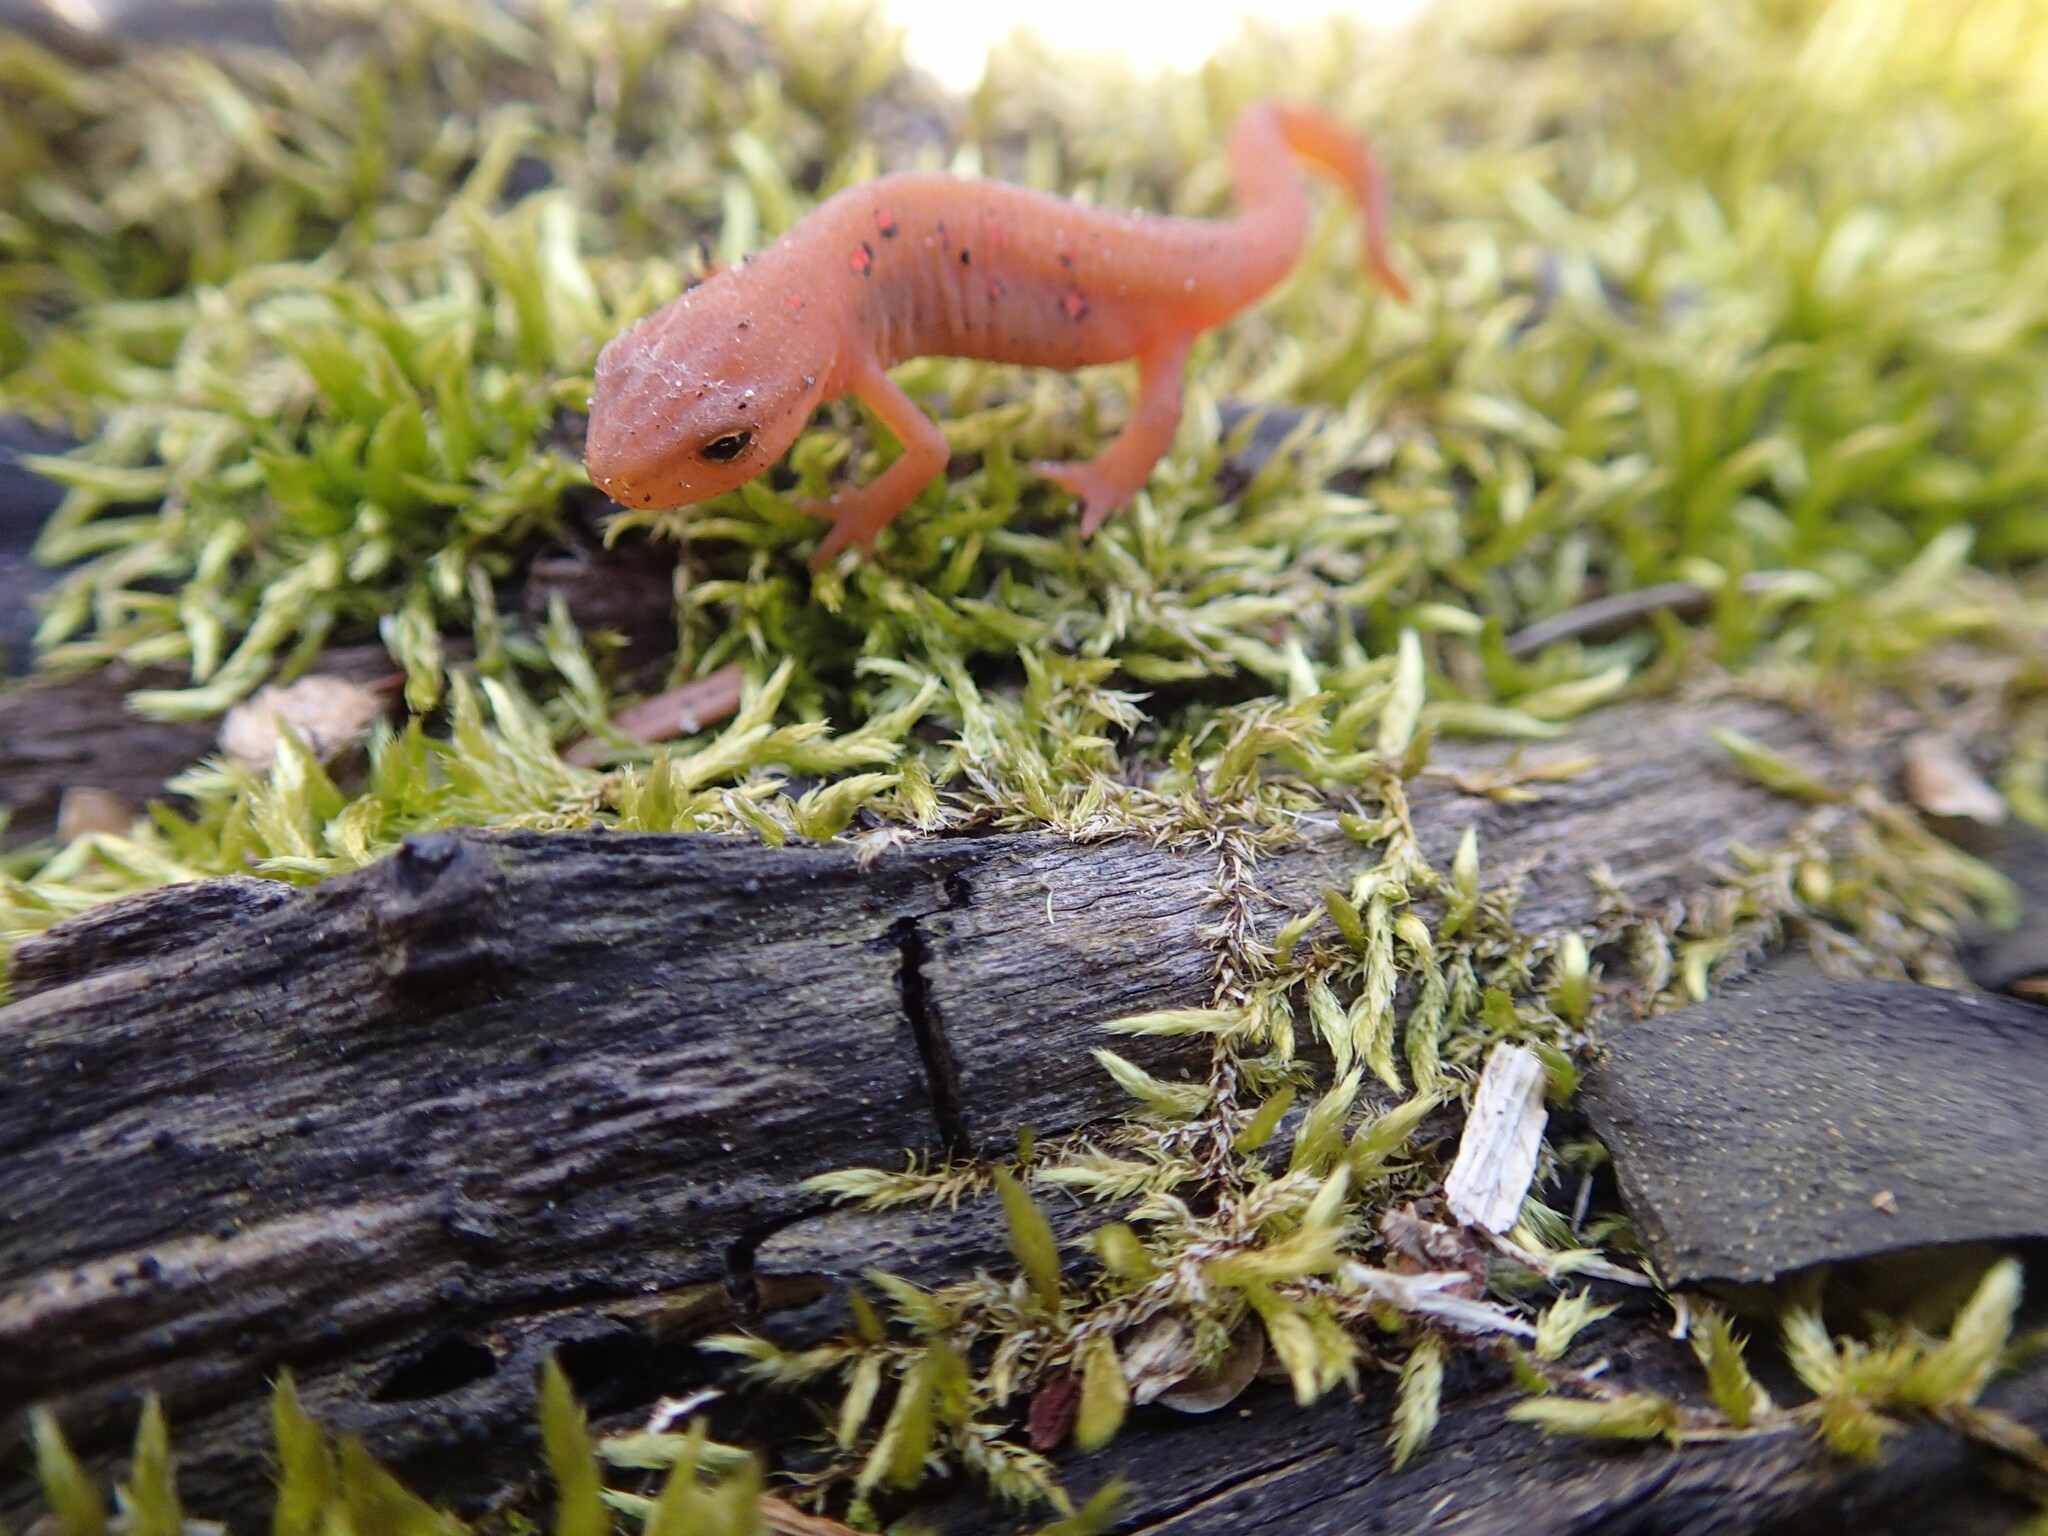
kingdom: Animalia
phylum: Chordata
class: Amphibia
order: Caudata
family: Salamandridae
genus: Notophthalmus
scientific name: Notophthalmus viridescens
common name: Eastern newt
